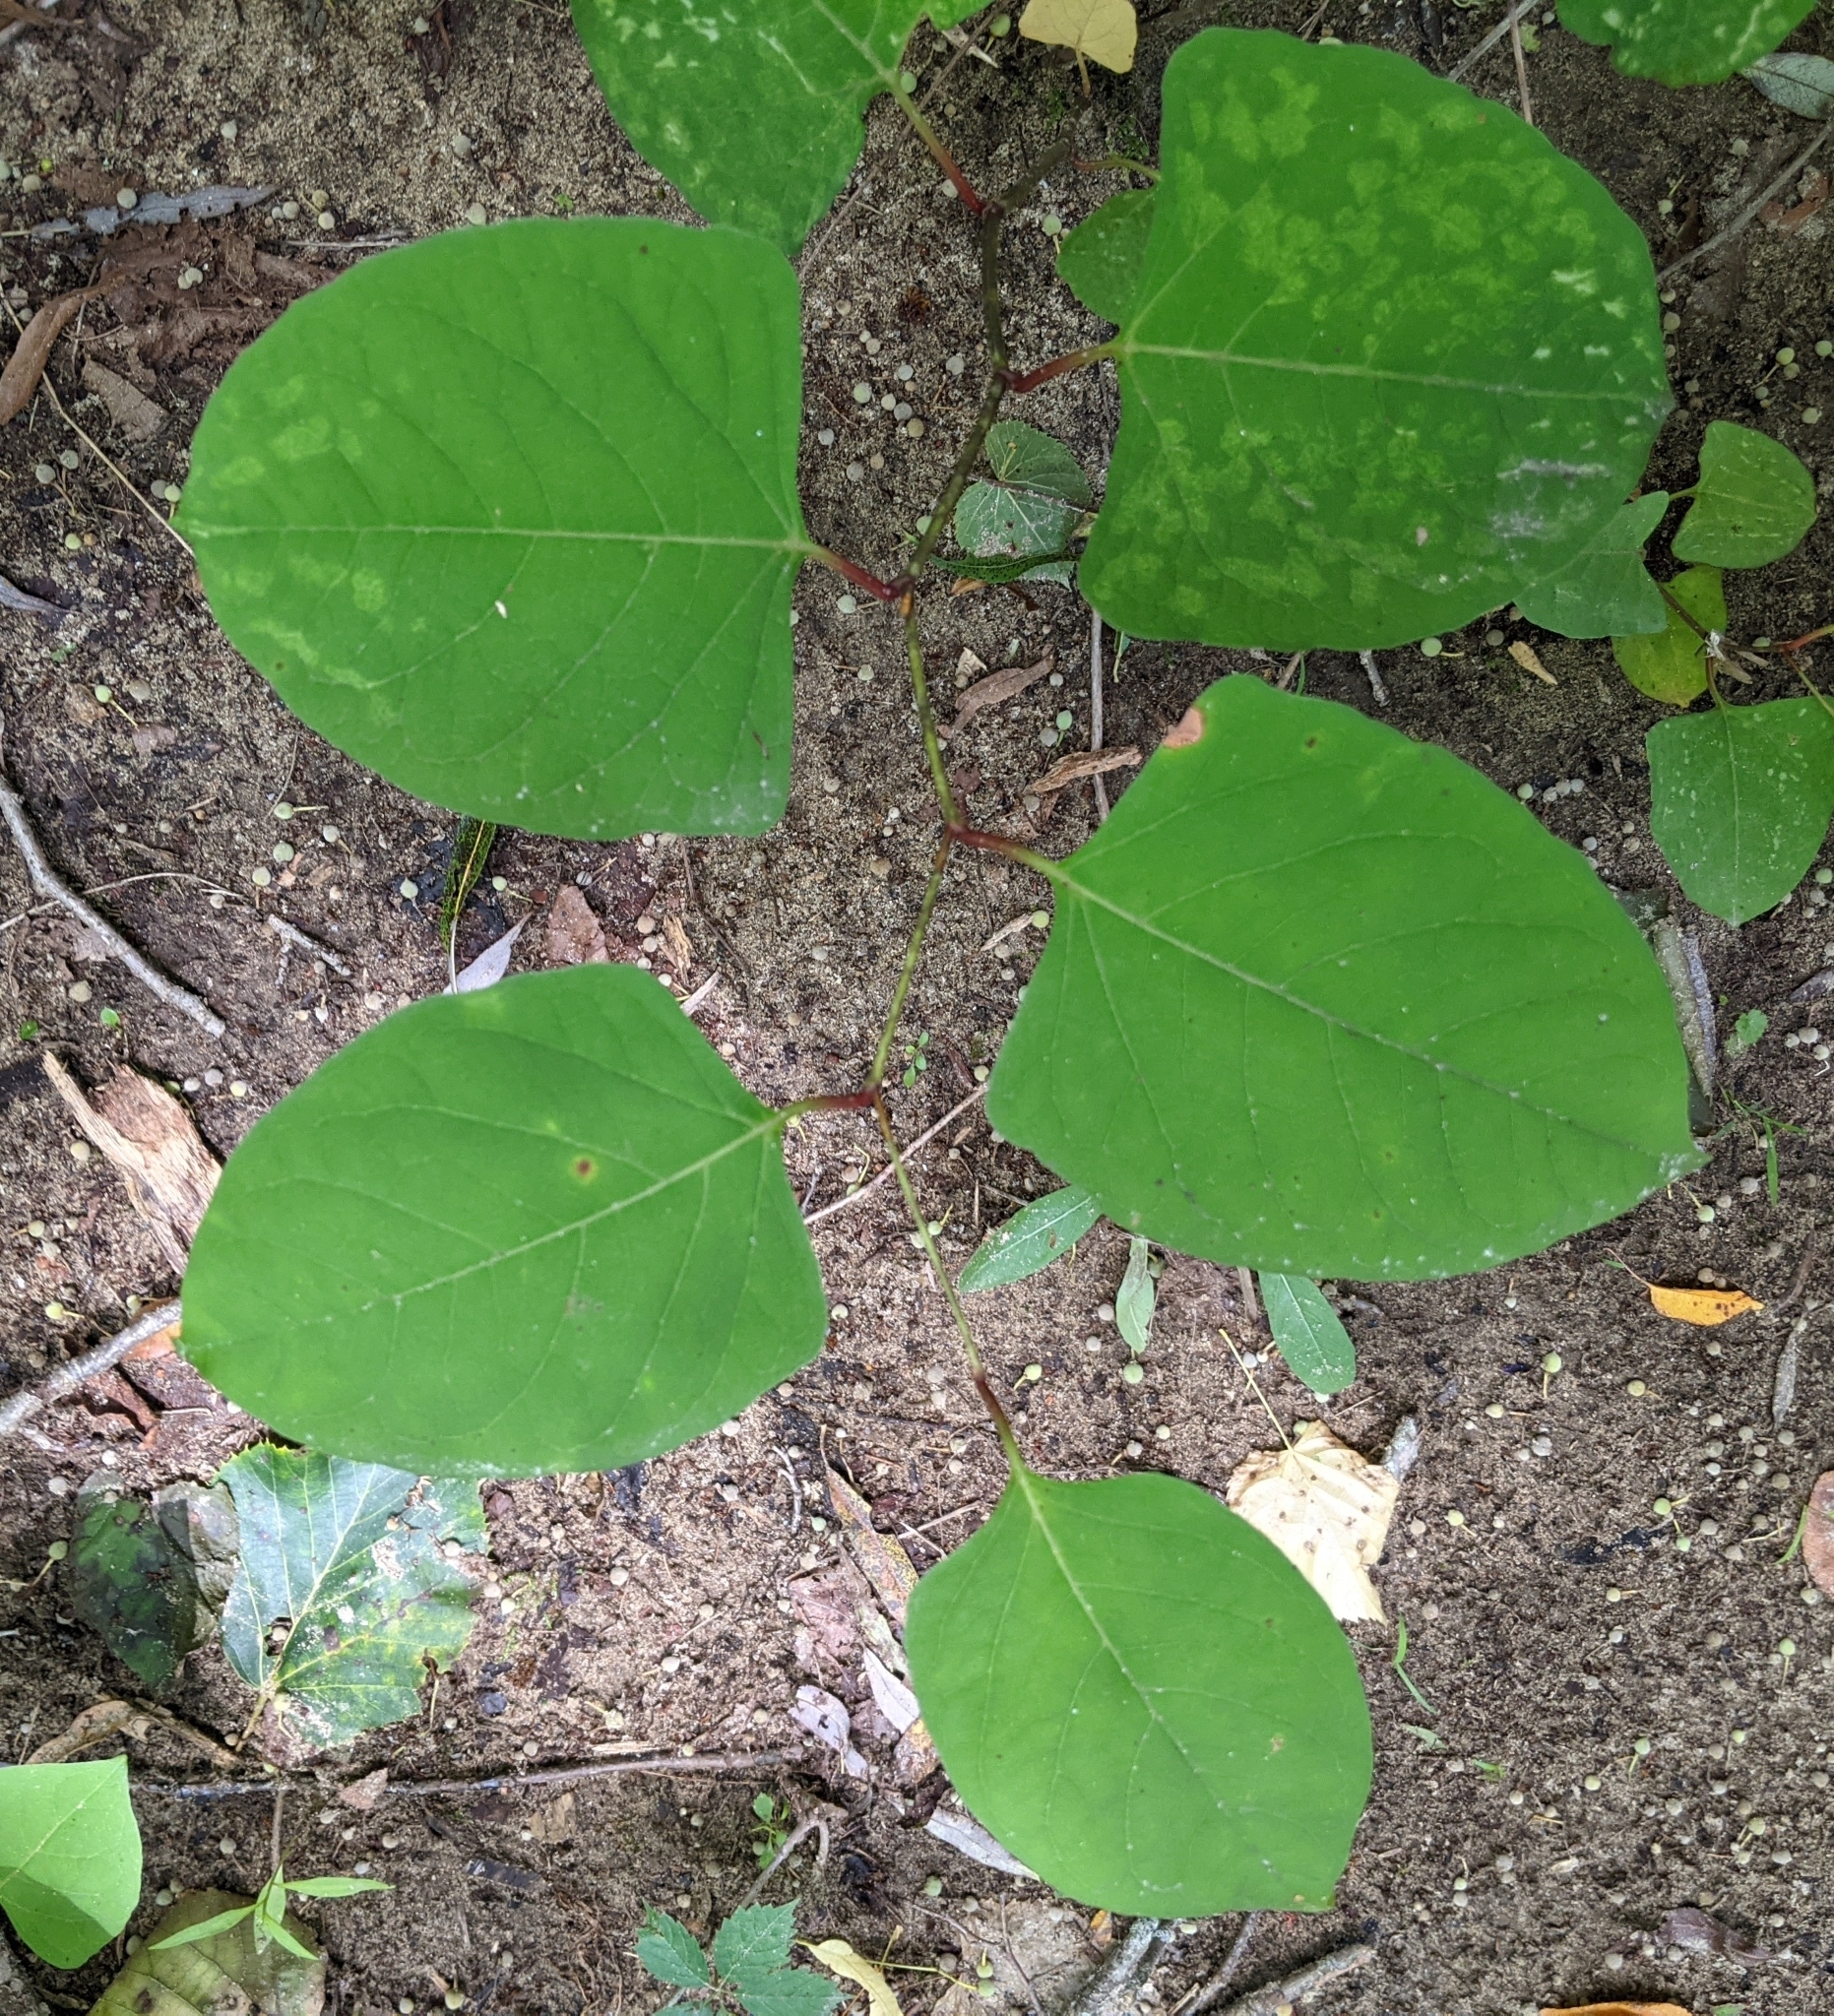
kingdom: Plantae
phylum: Tracheophyta
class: Magnoliopsida
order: Caryophyllales
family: Polygonaceae
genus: Reynoutria
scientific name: Reynoutria japonica
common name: Japanese knotweed
